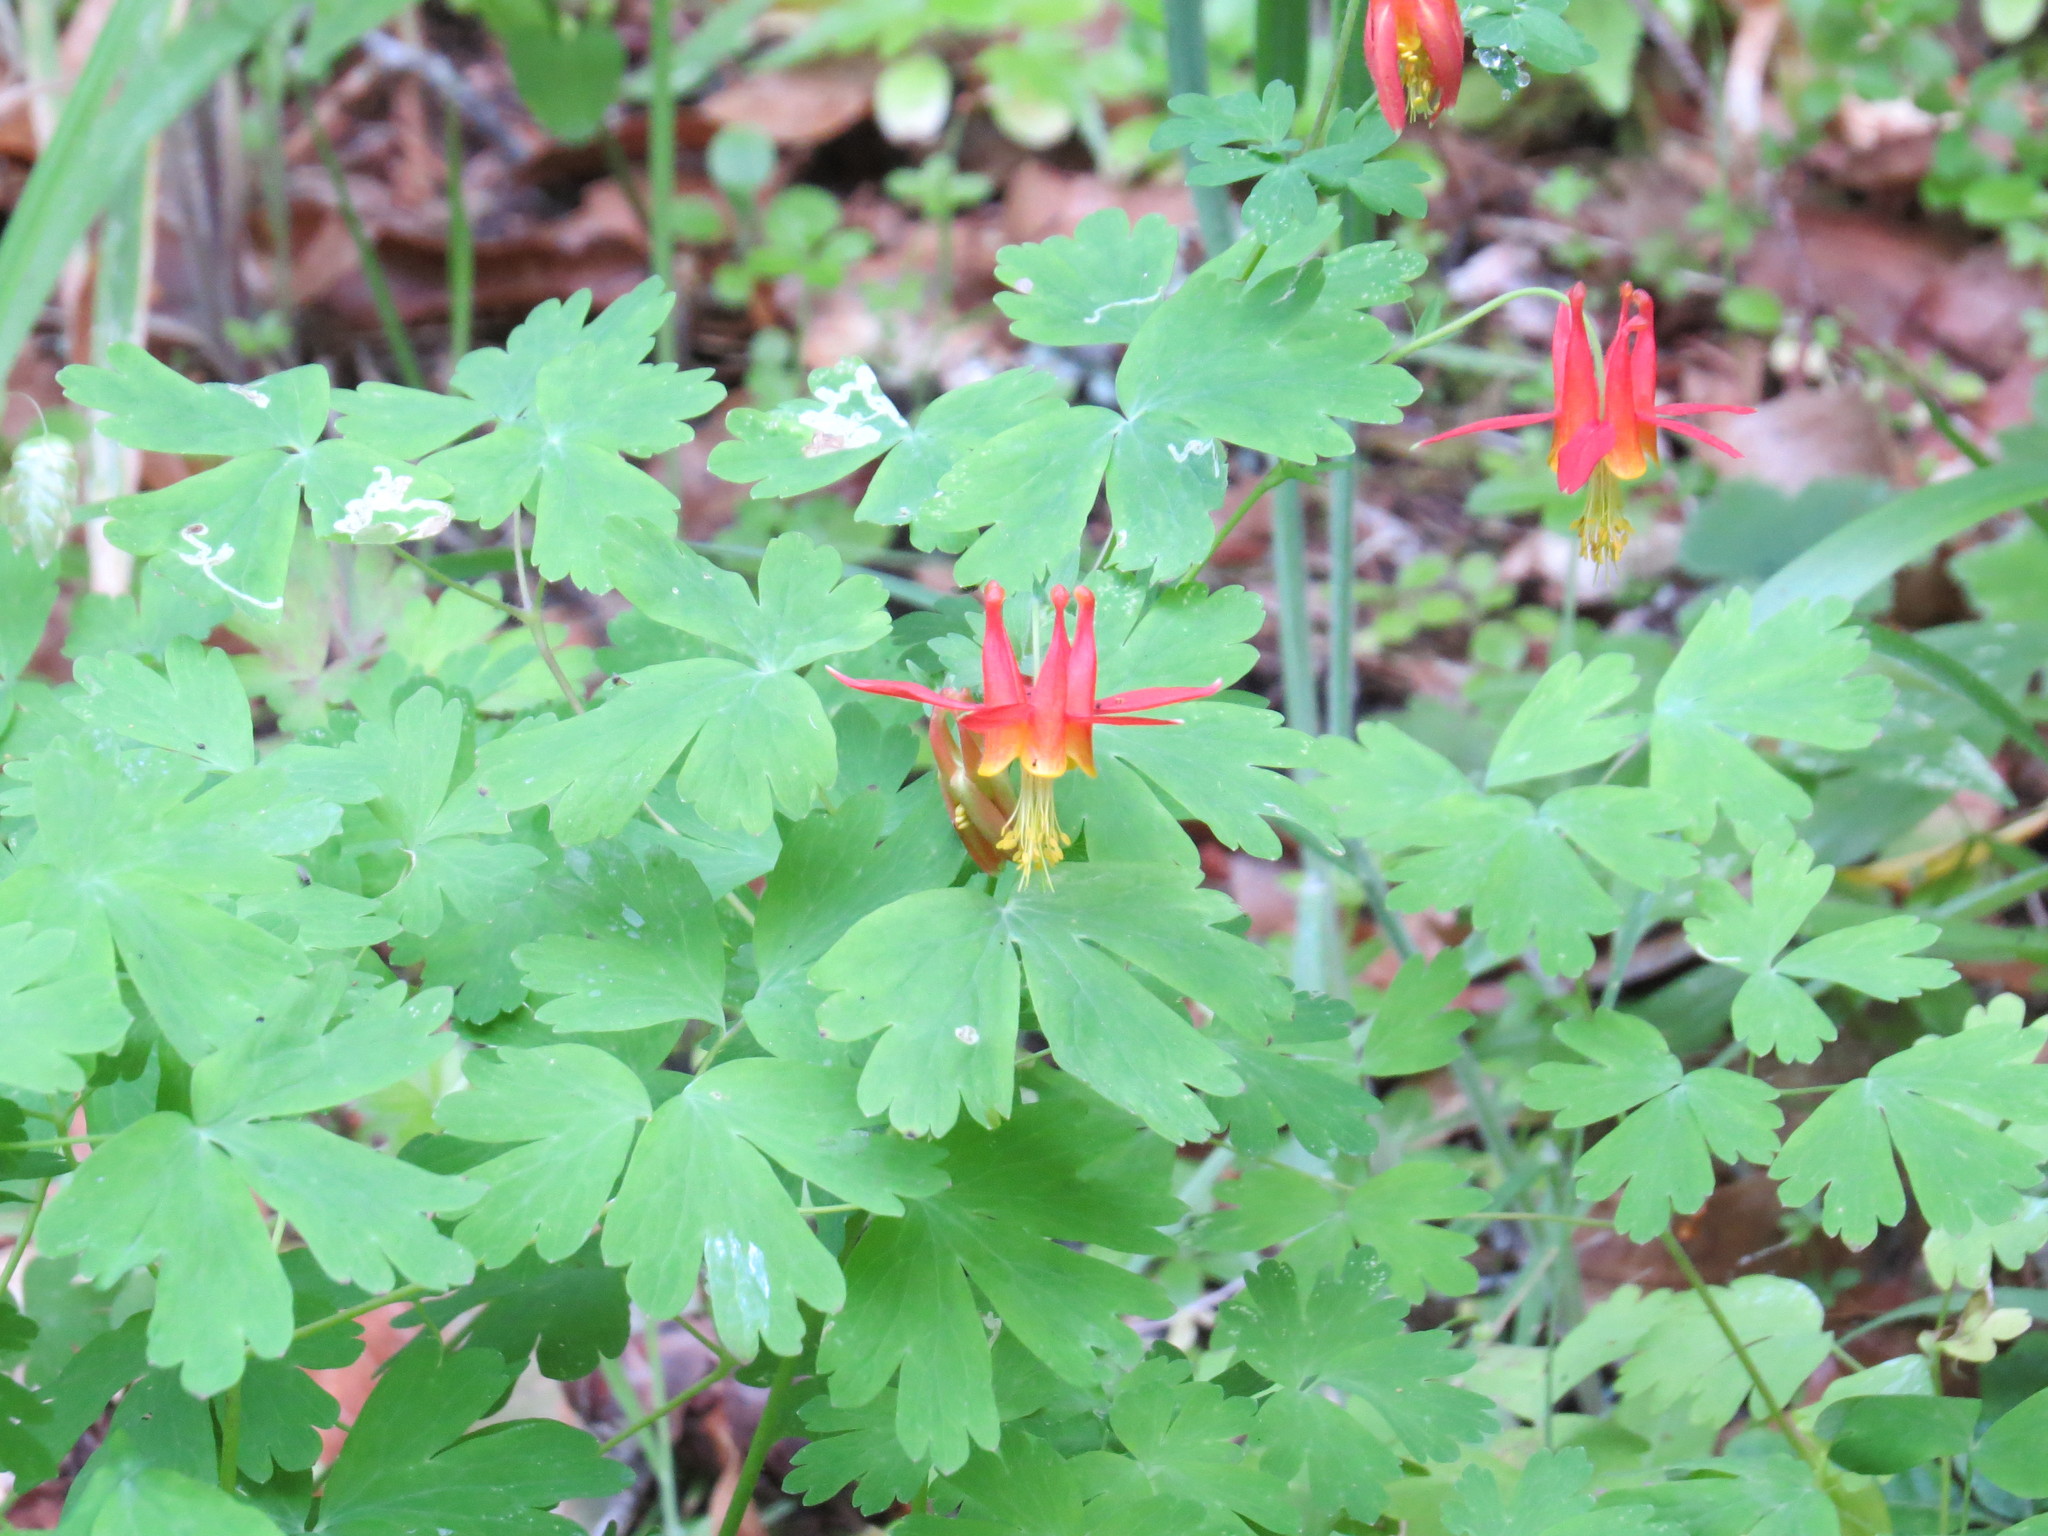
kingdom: Plantae
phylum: Tracheophyta
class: Magnoliopsida
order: Ranunculales
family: Ranunculaceae
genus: Aquilegia
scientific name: Aquilegia formosa
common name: Sitka columbine
